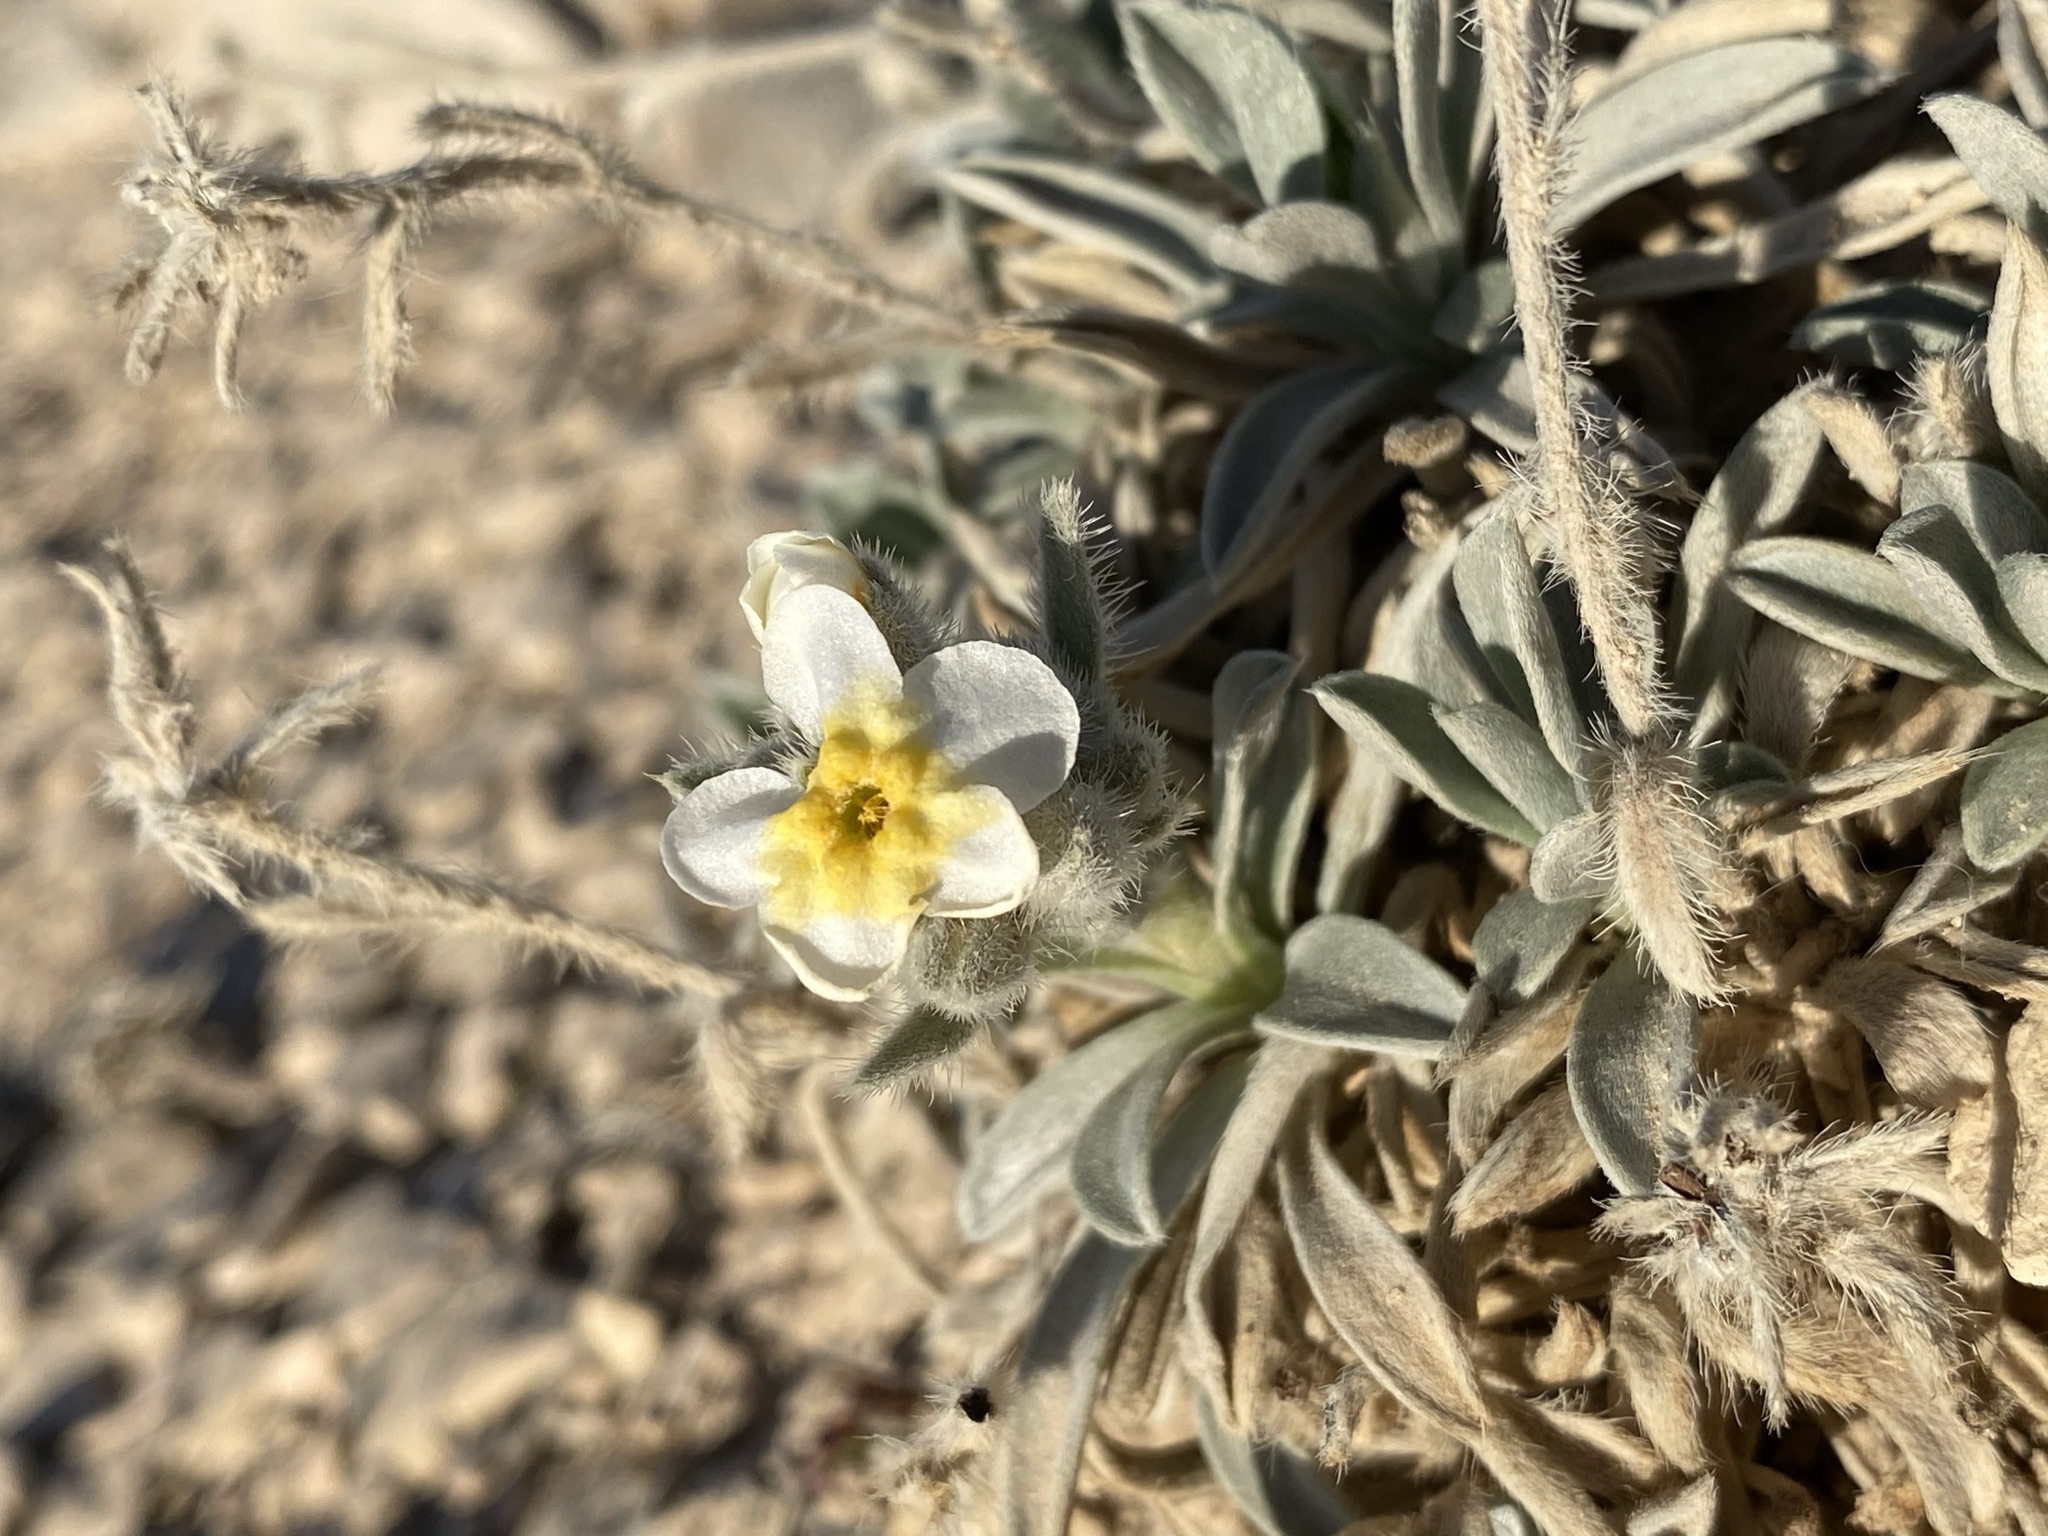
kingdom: Plantae
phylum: Tracheophyta
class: Magnoliopsida
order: Boraginales
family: Boraginaceae
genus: Oreocarya
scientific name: Oreocarya crassipes
